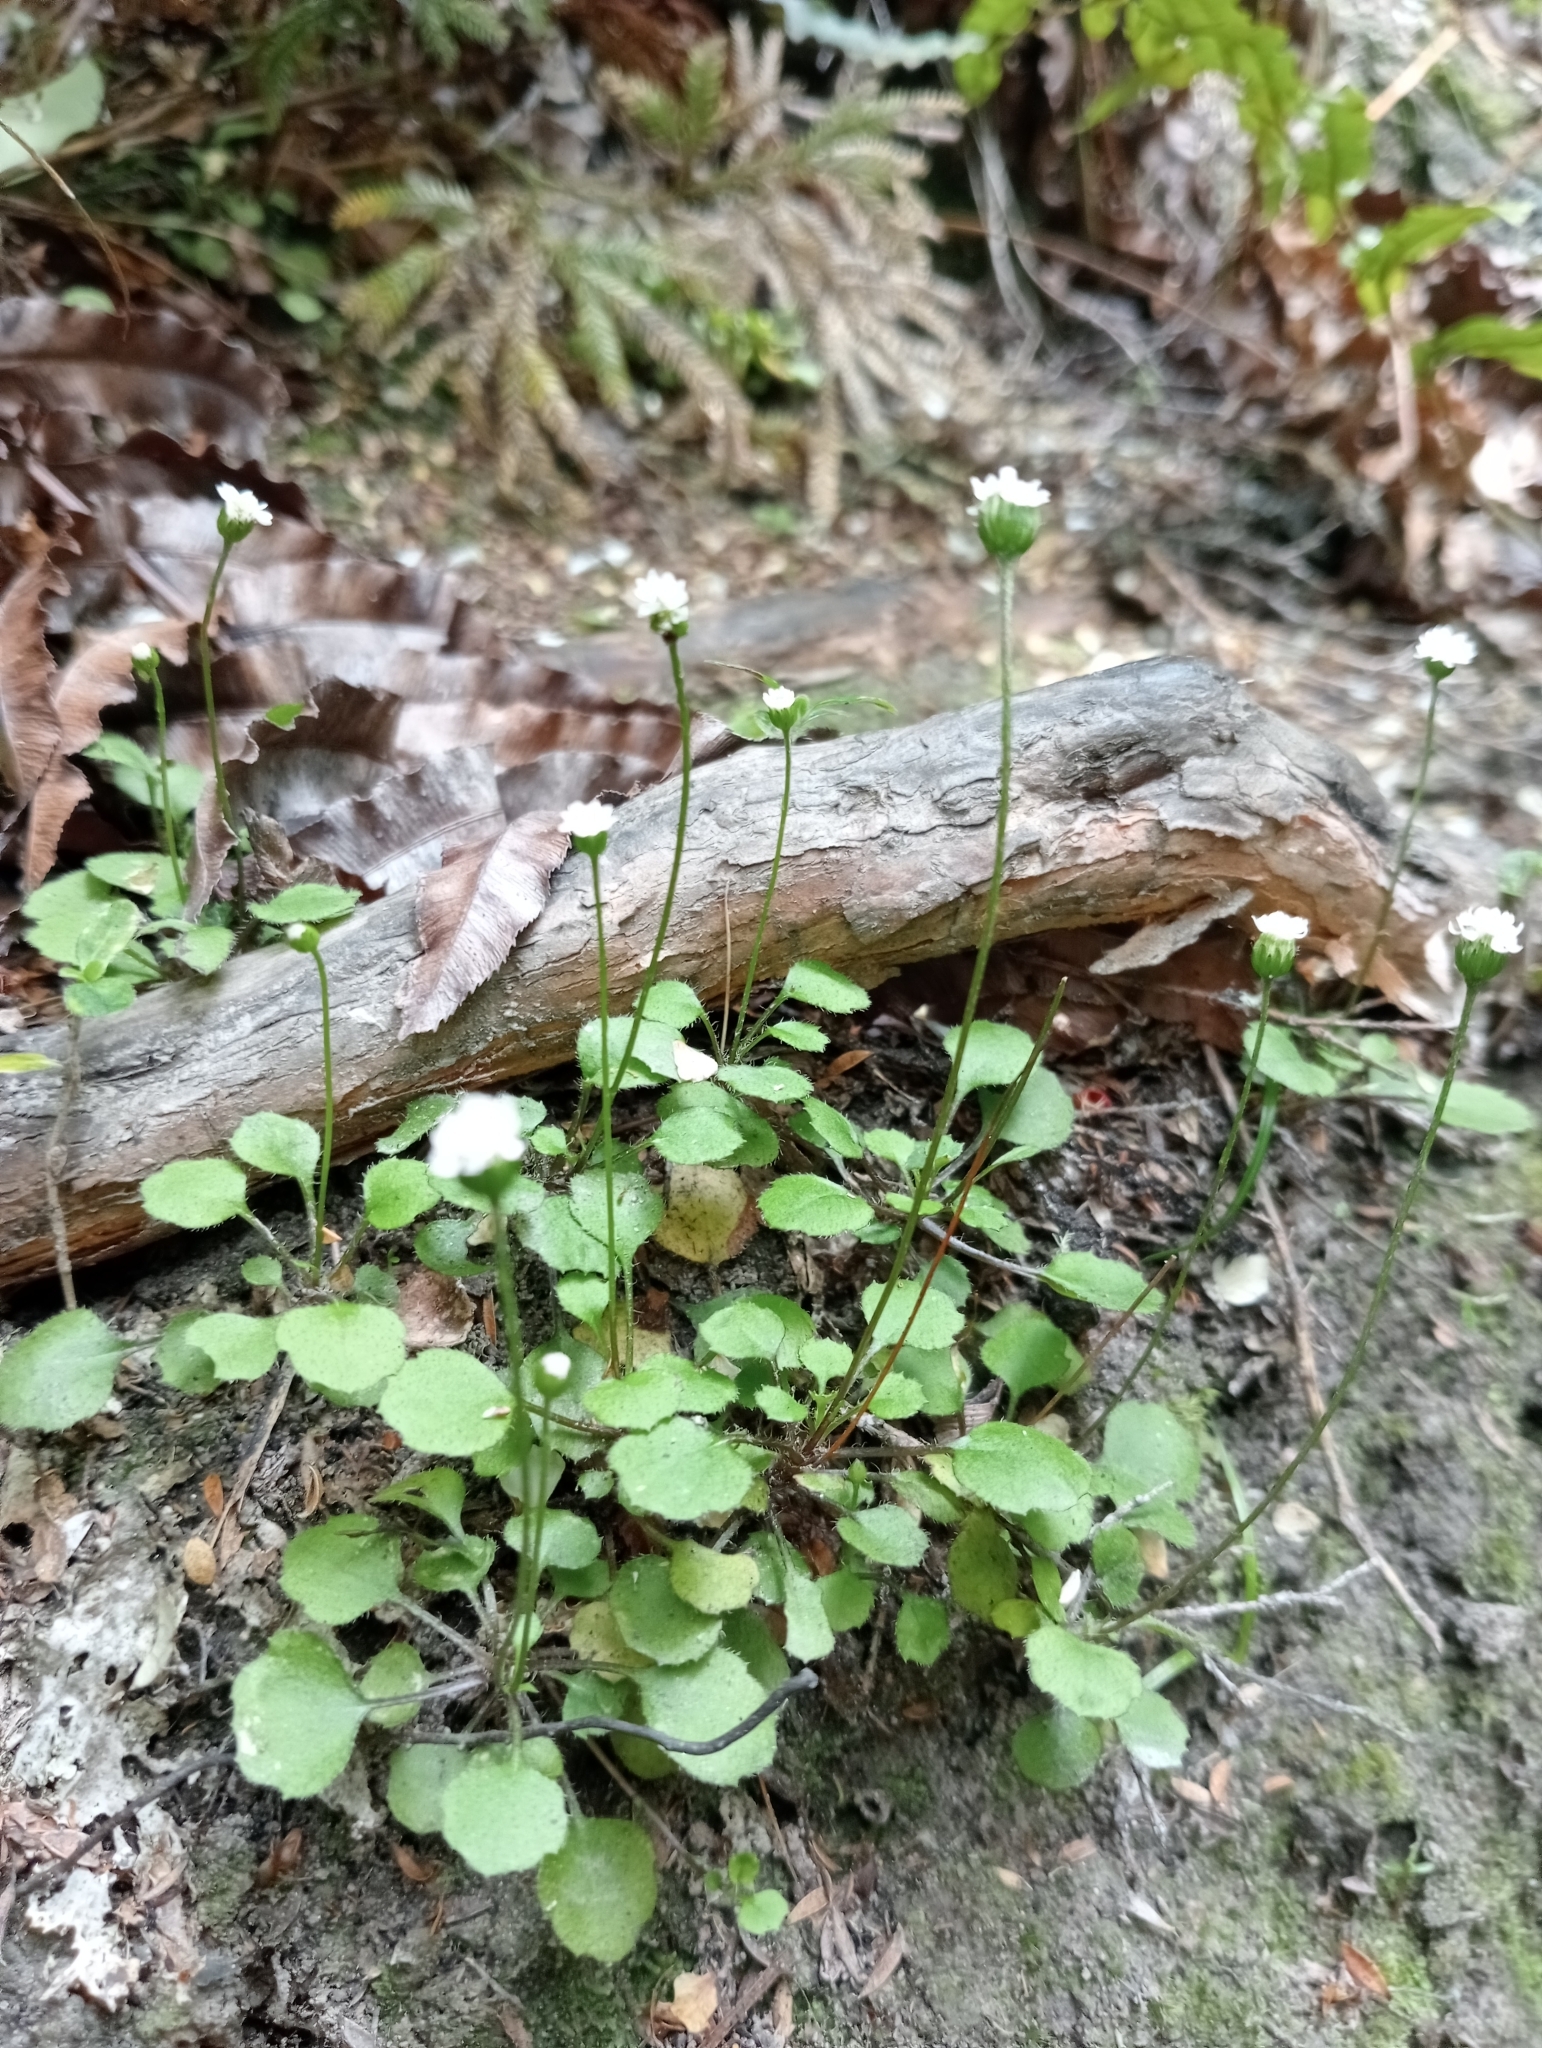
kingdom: Plantae
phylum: Tracheophyta
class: Magnoliopsida
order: Asterales
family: Asteraceae
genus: Lagenophora
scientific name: Lagenophora strangulata
